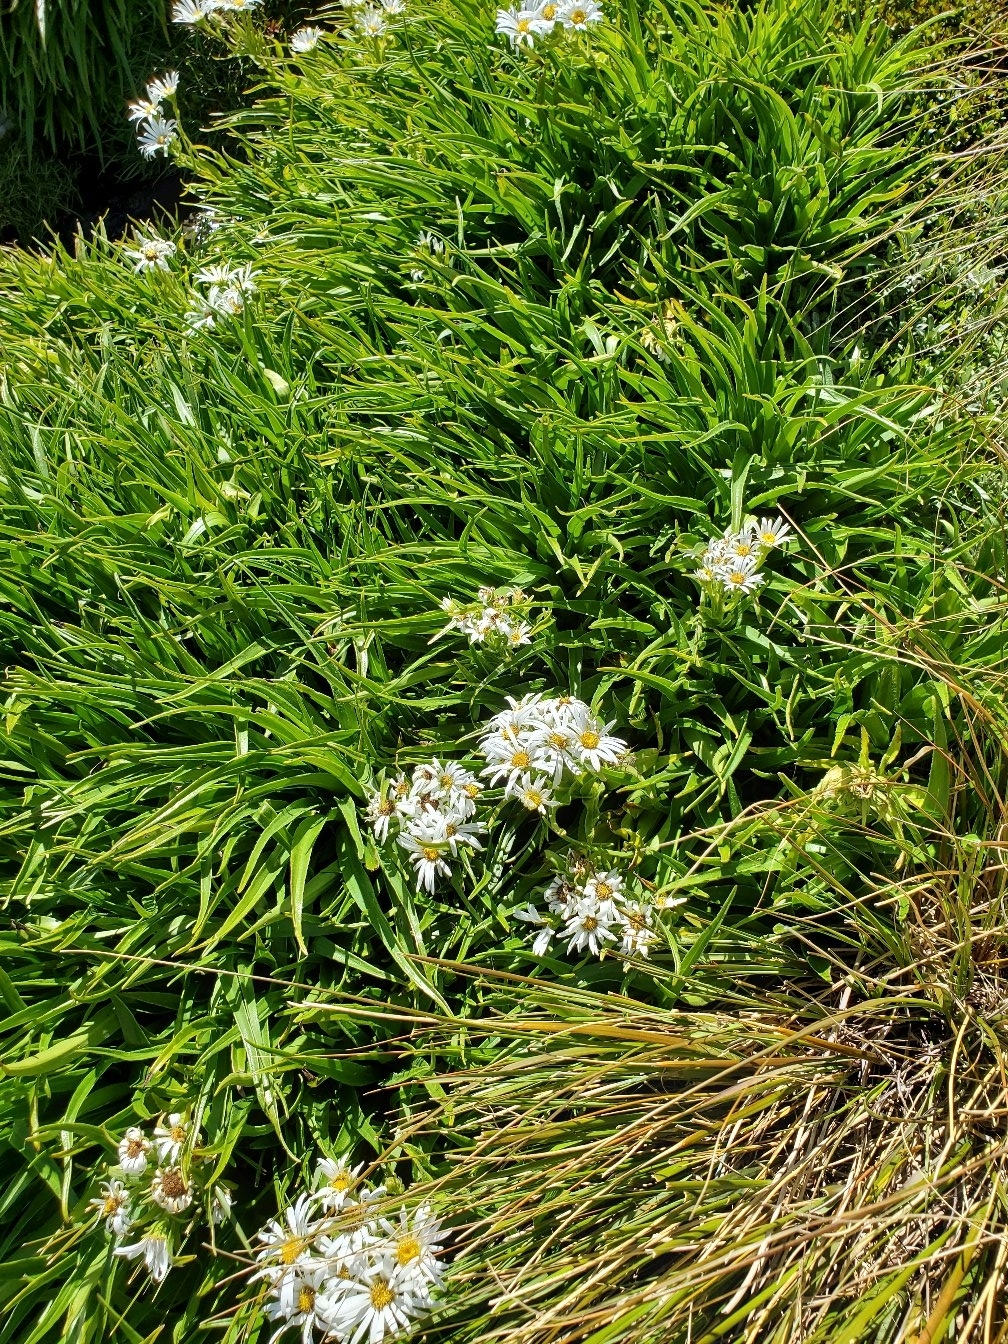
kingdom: Plantae
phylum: Tracheophyta
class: Magnoliopsida
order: Asterales
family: Asteraceae
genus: Dolichoglottis
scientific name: Dolichoglottis scorzoneroides
